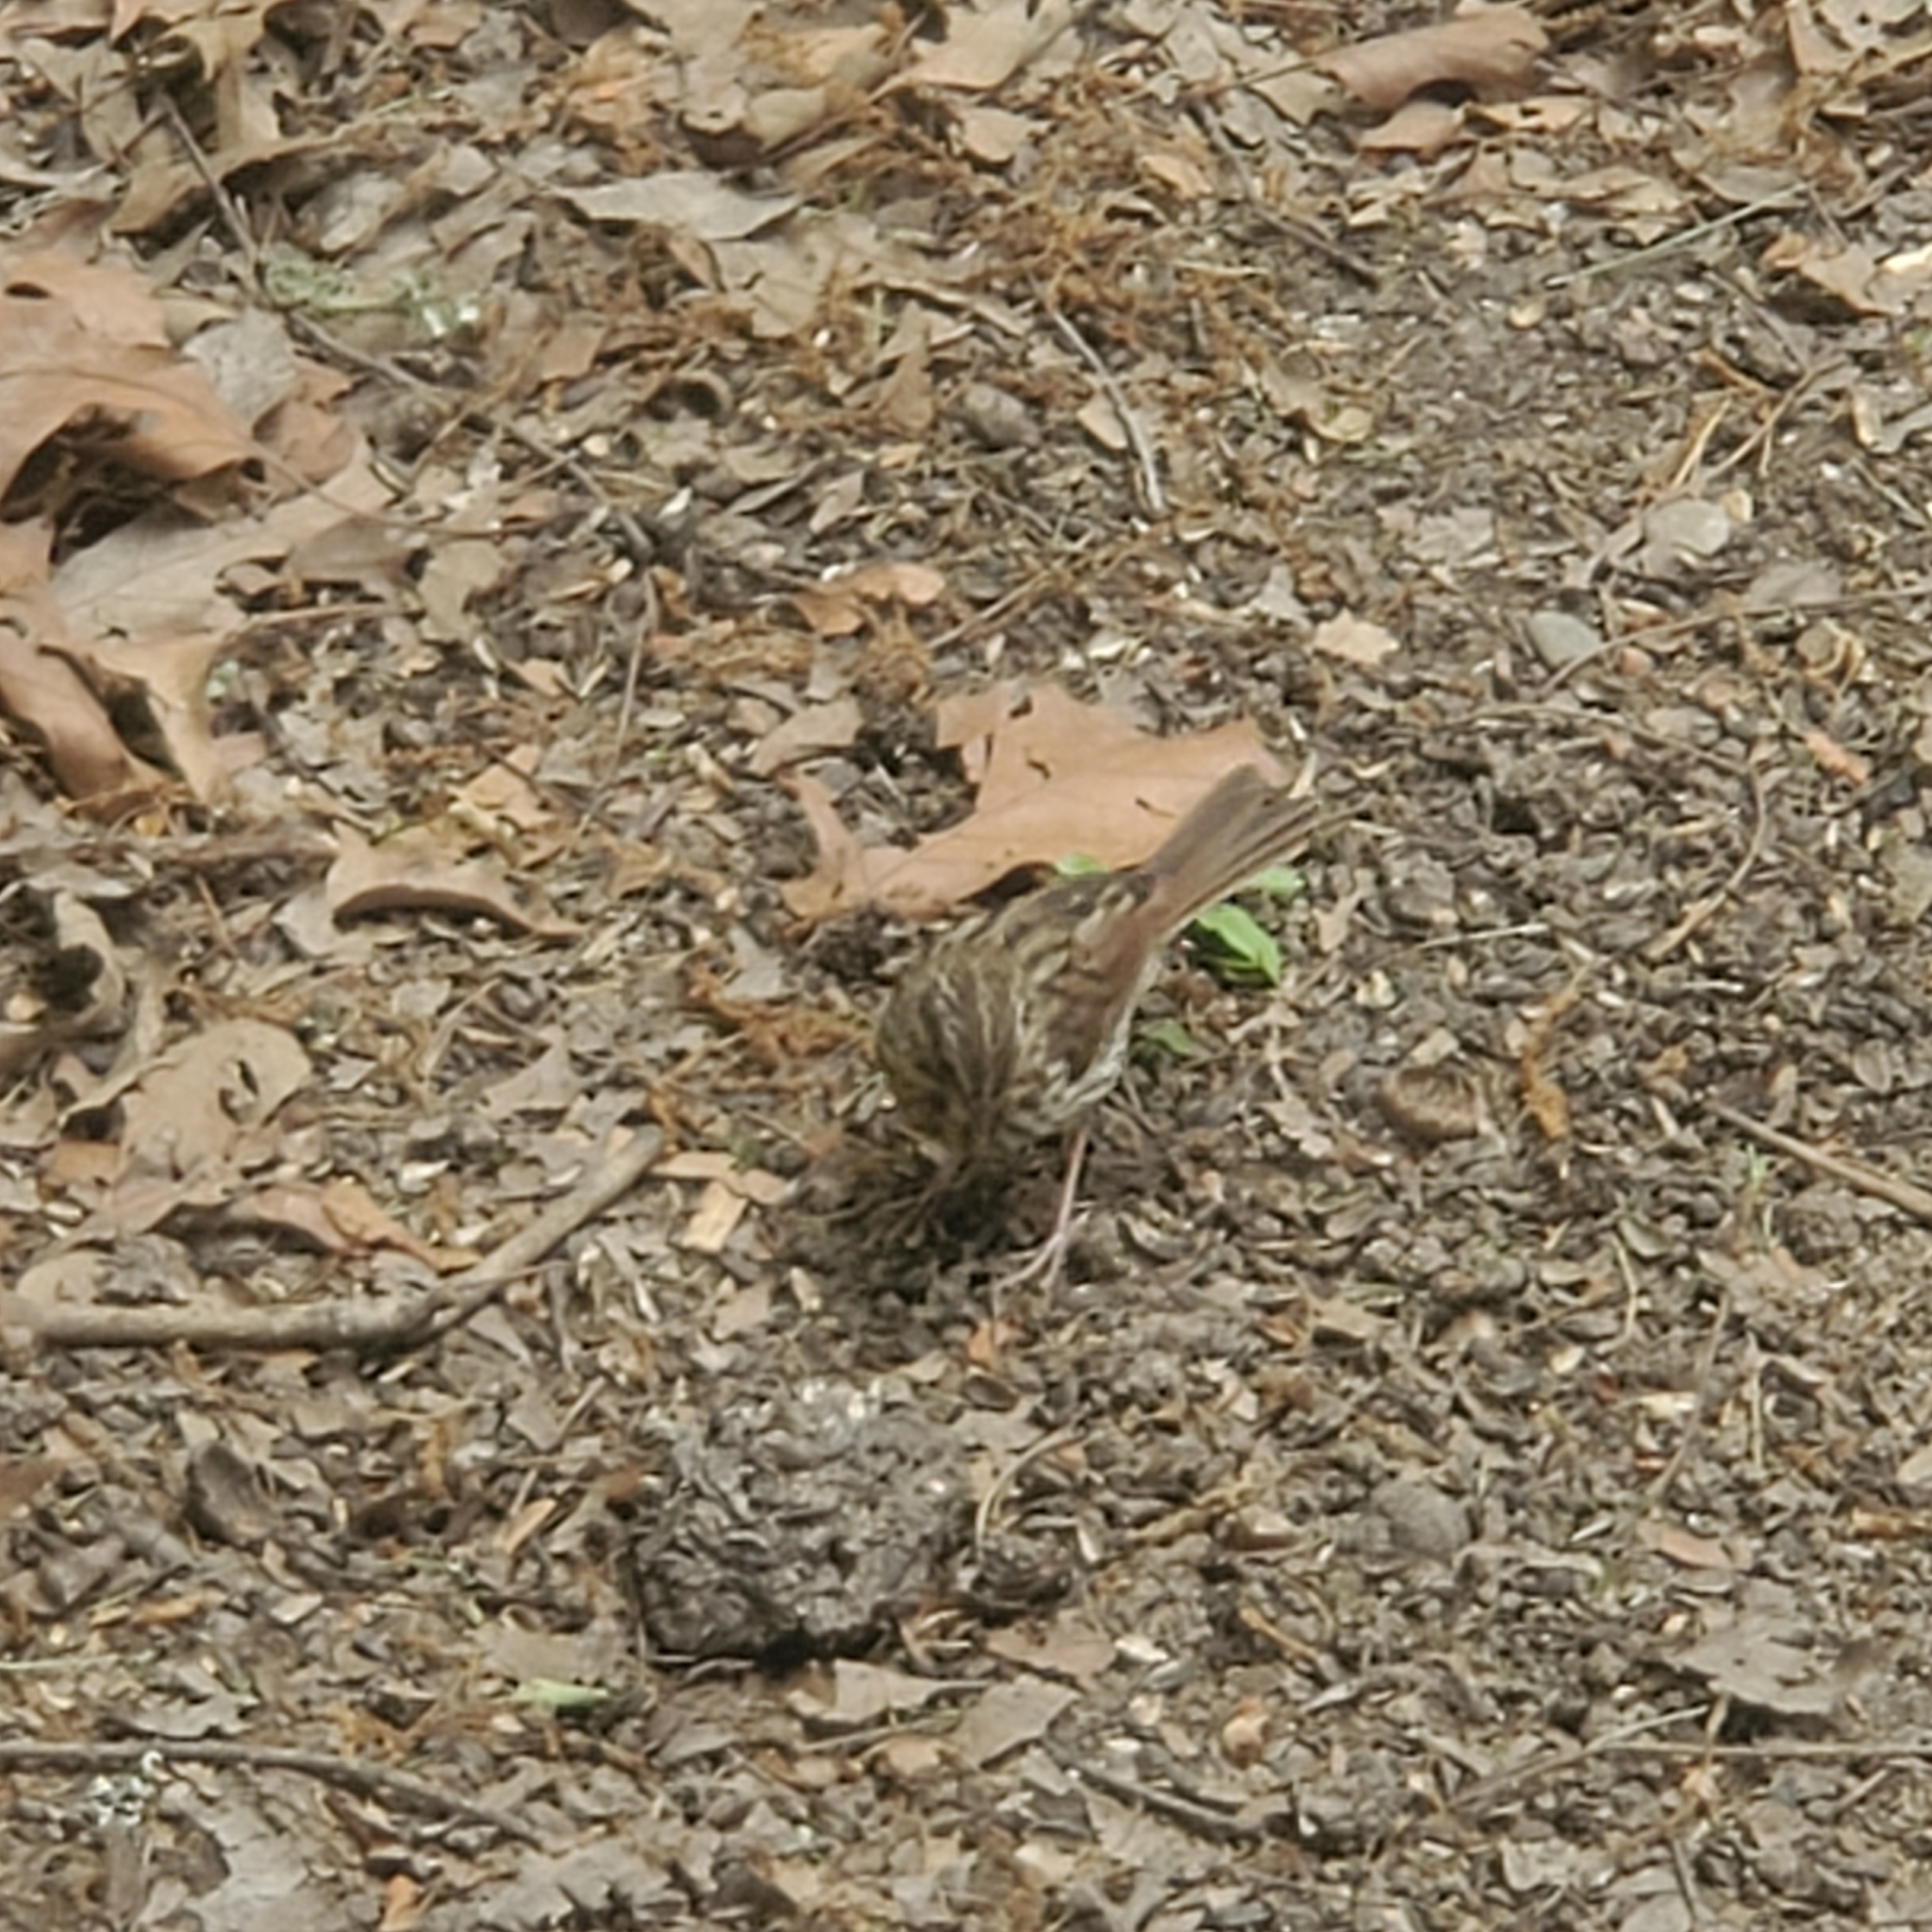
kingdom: Animalia
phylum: Chordata
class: Aves
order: Passeriformes
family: Passerellidae
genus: Melospiza
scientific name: Melospiza melodia
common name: Song sparrow
